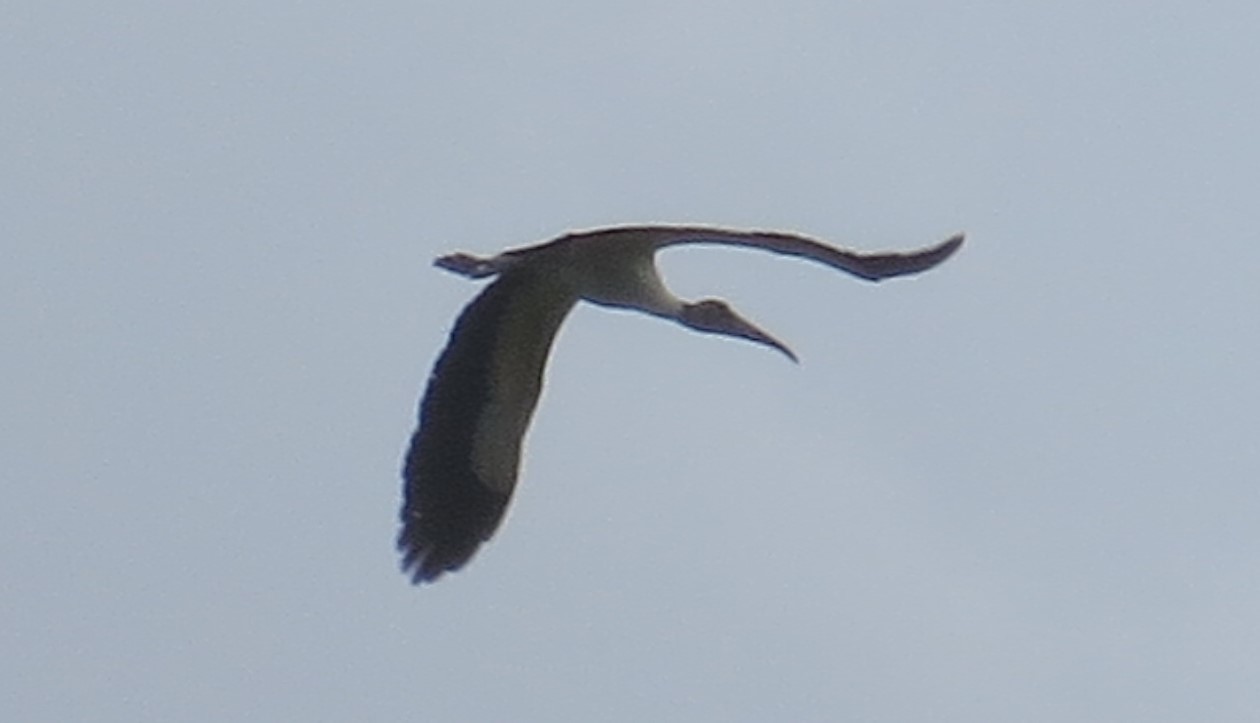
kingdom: Animalia
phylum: Chordata
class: Aves
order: Ciconiiformes
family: Ciconiidae
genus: Mycteria
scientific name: Mycteria americana
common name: Wood stork
